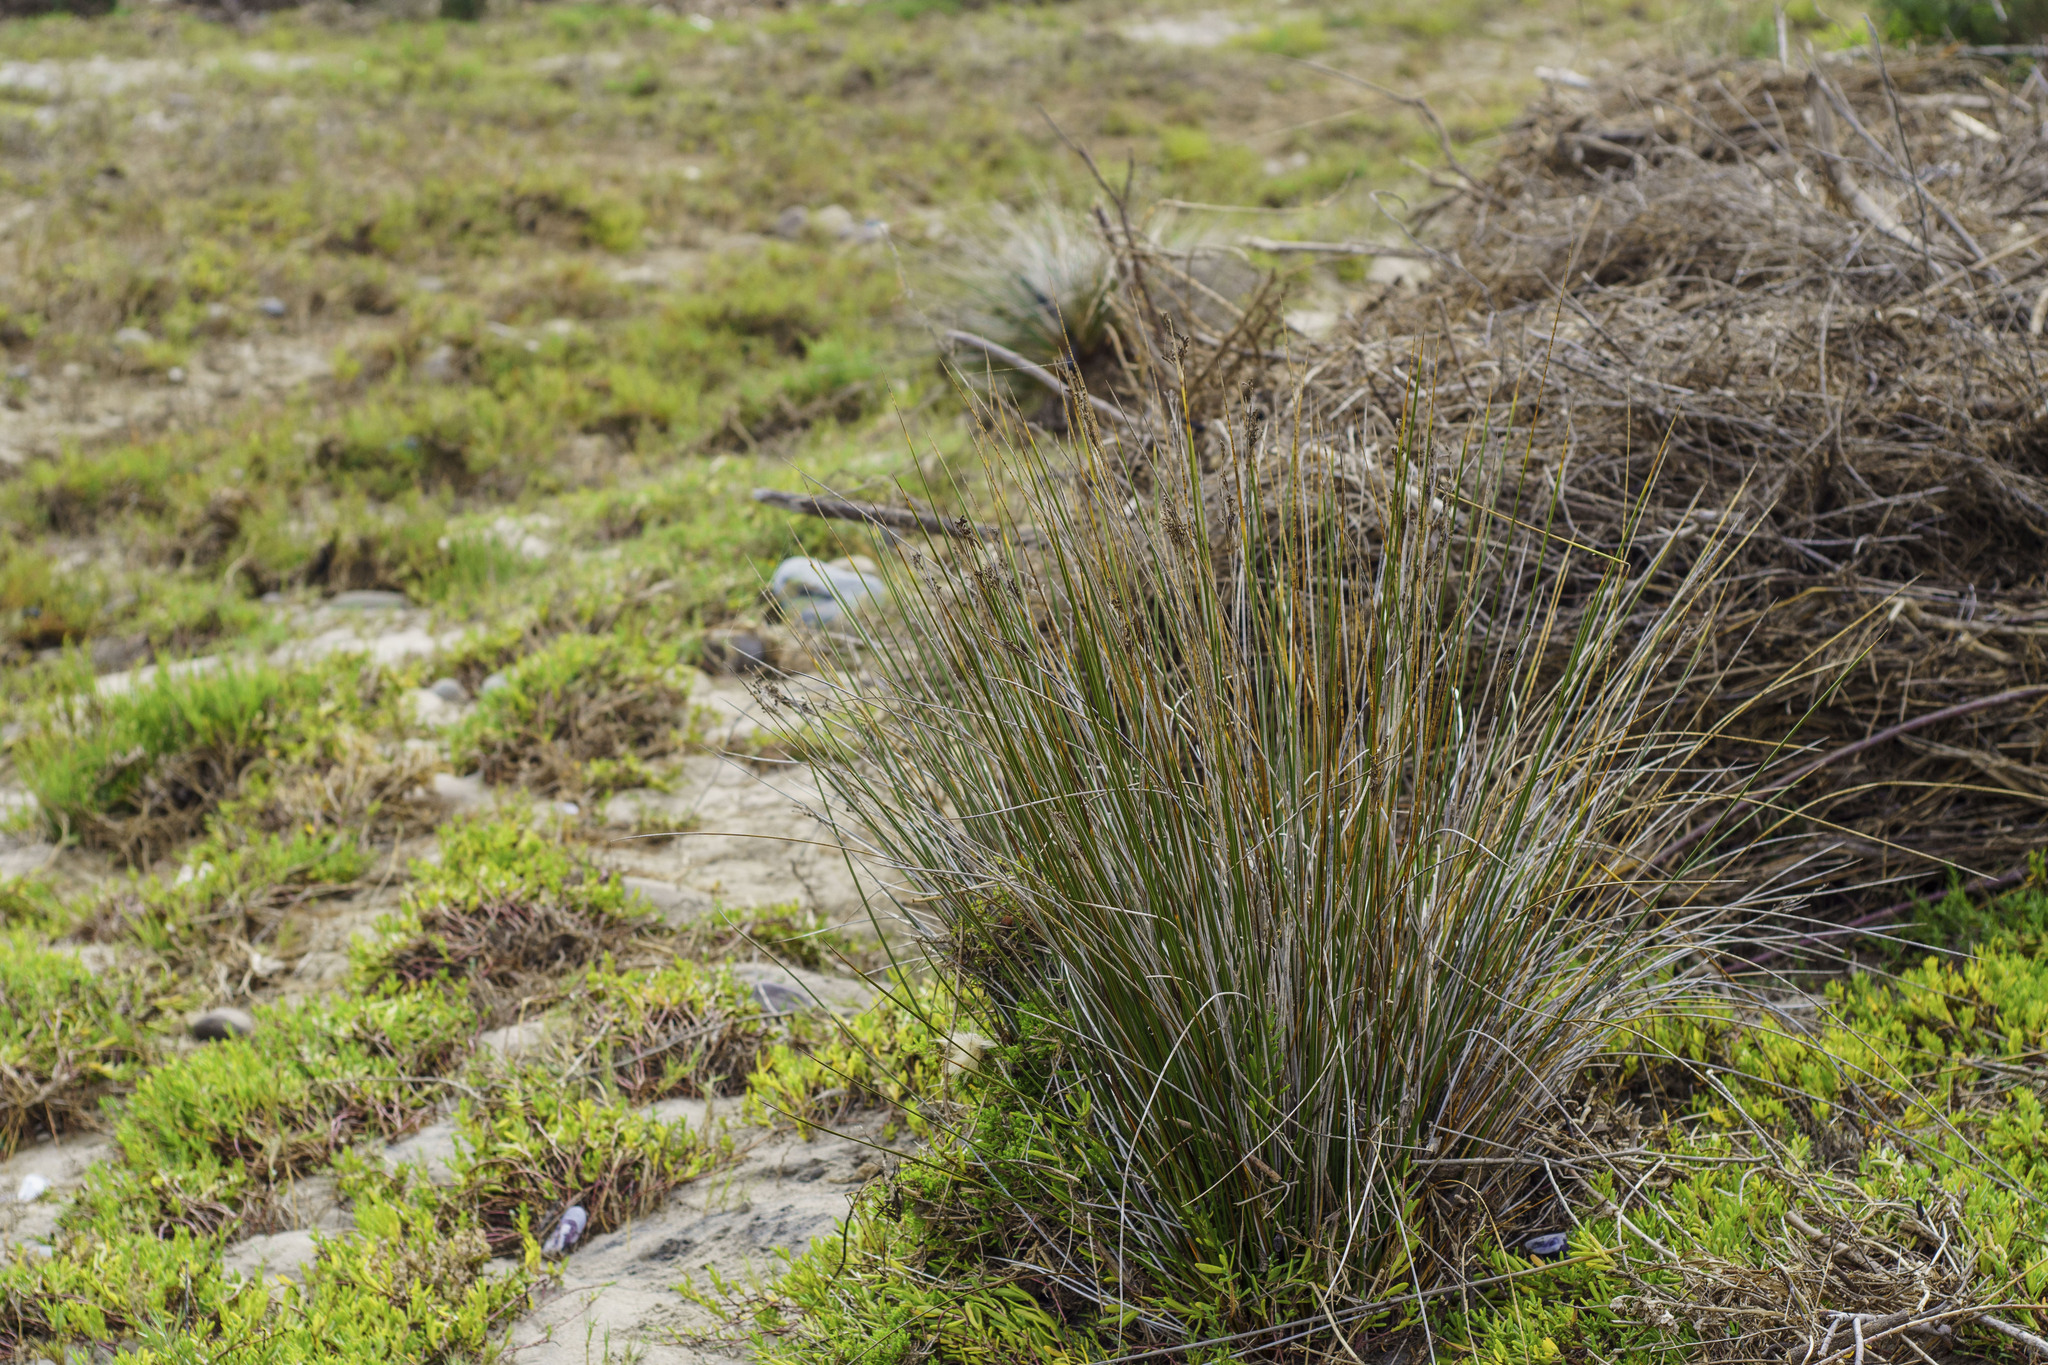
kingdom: Plantae
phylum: Tracheophyta
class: Liliopsida
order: Poales
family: Juncaceae
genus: Juncus
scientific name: Juncus acutus
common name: Sharp rush
